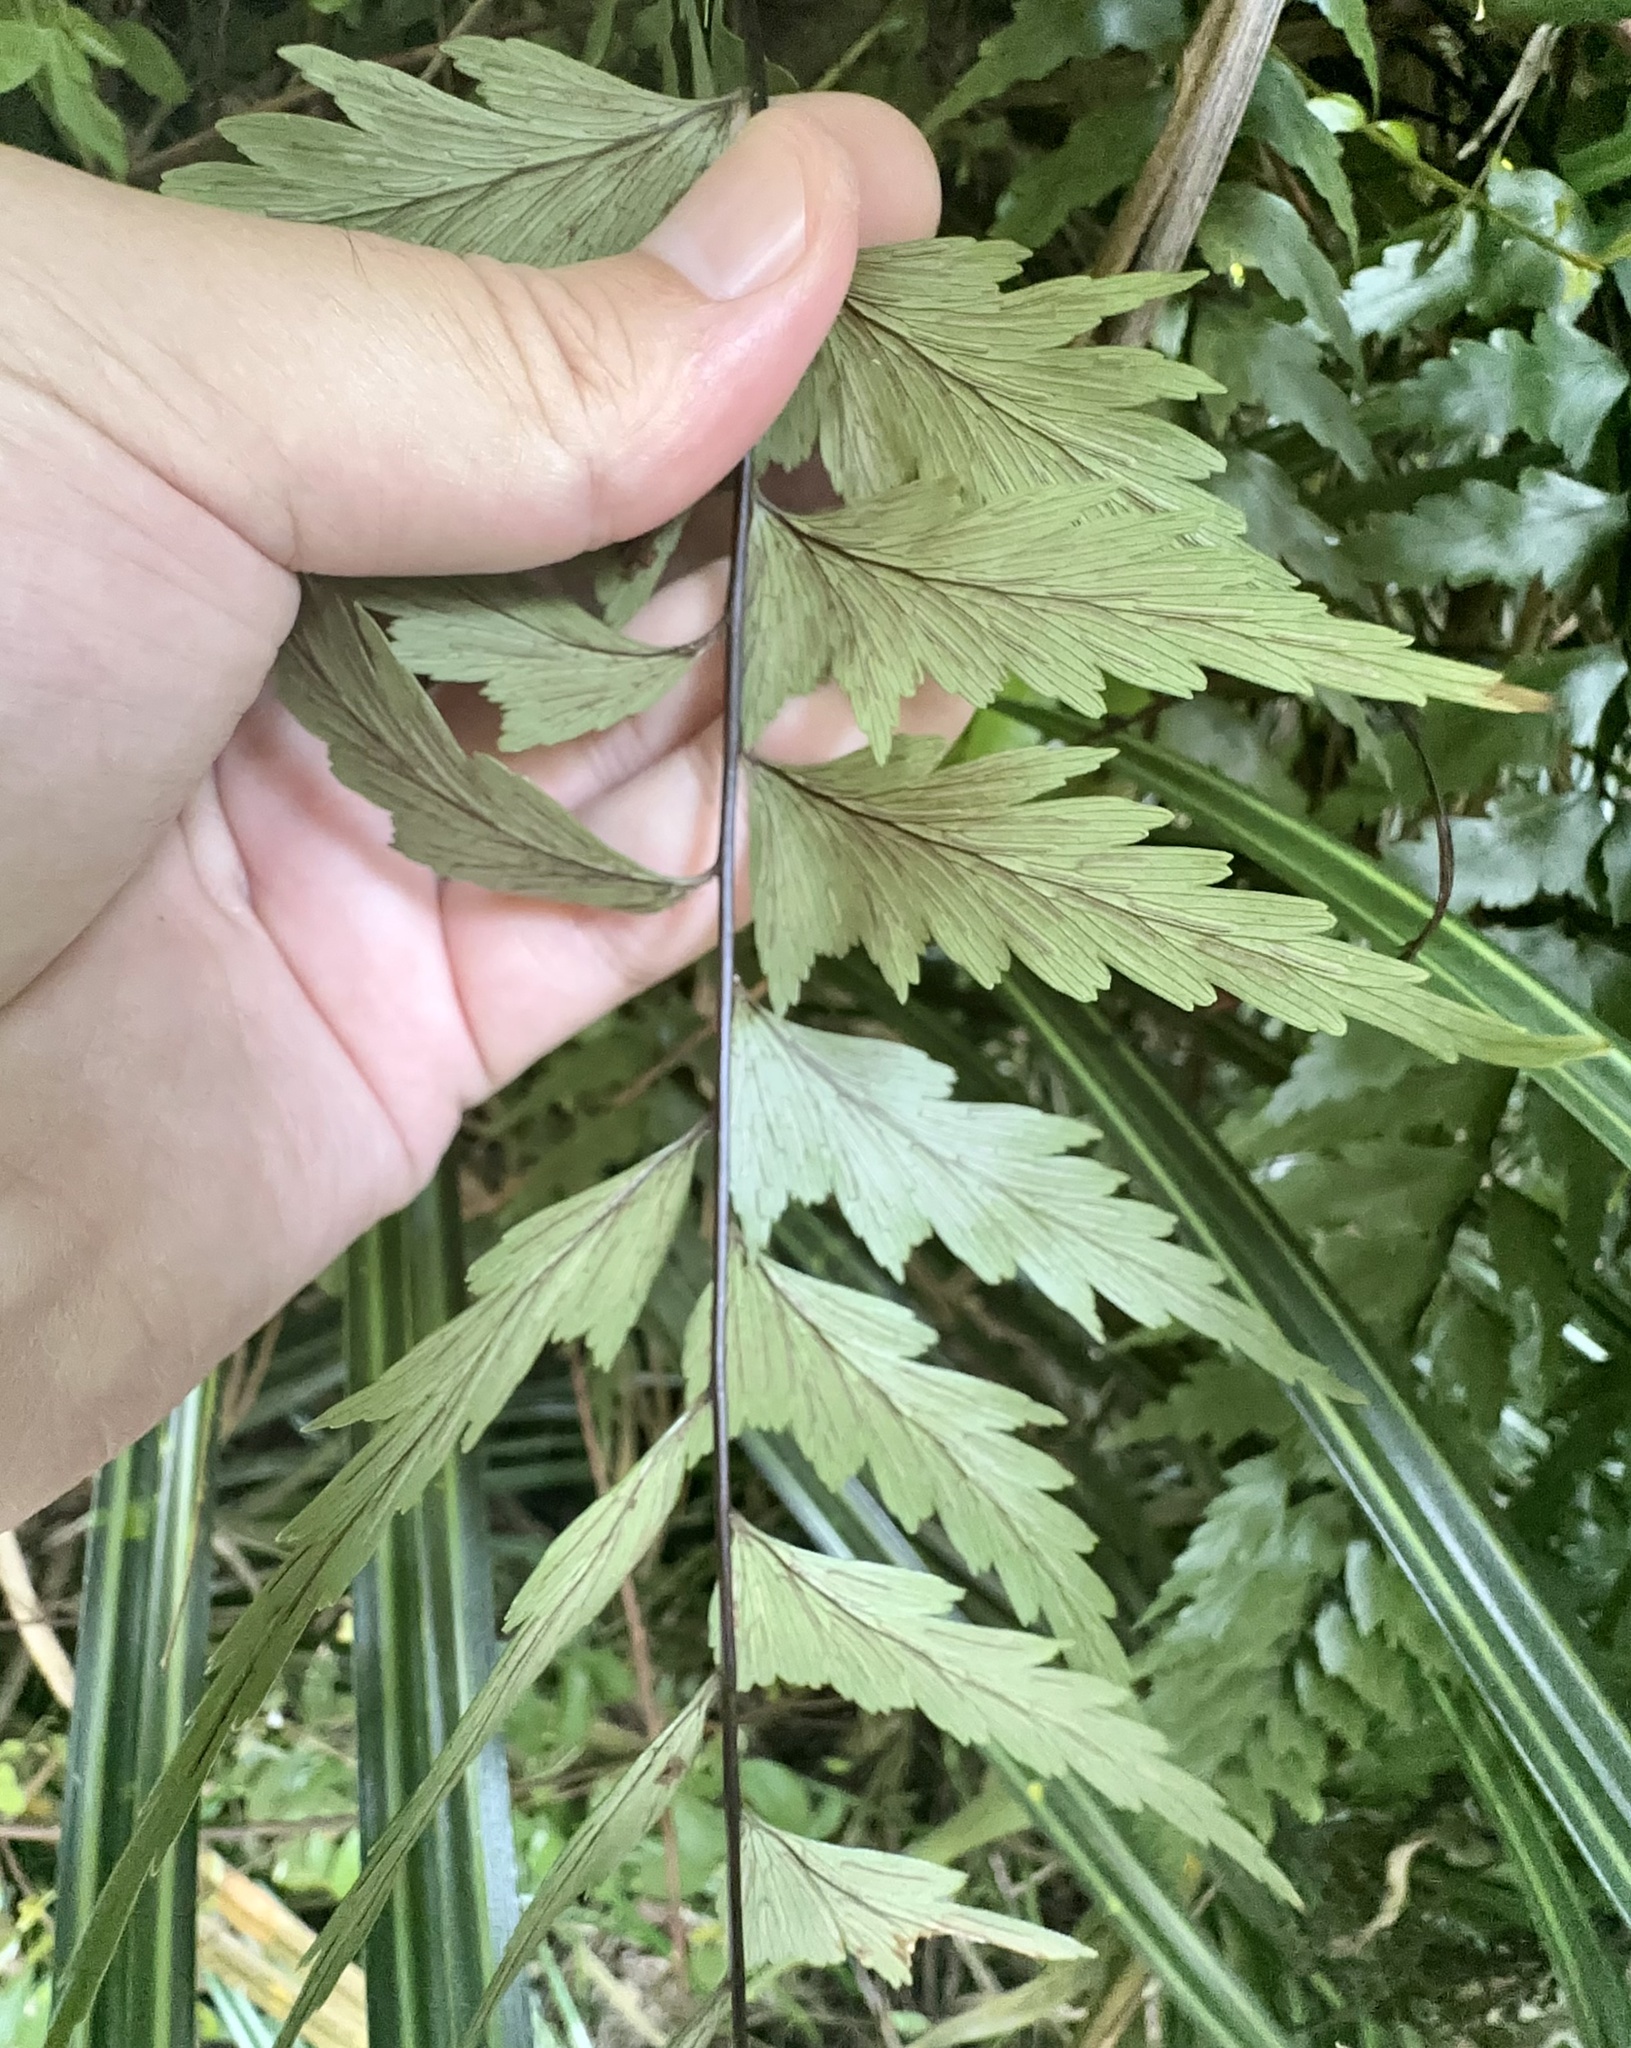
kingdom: Plantae
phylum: Tracheophyta
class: Polypodiopsida
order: Polypodiales
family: Aspleniaceae
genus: Asplenium
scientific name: Asplenium polyodon
